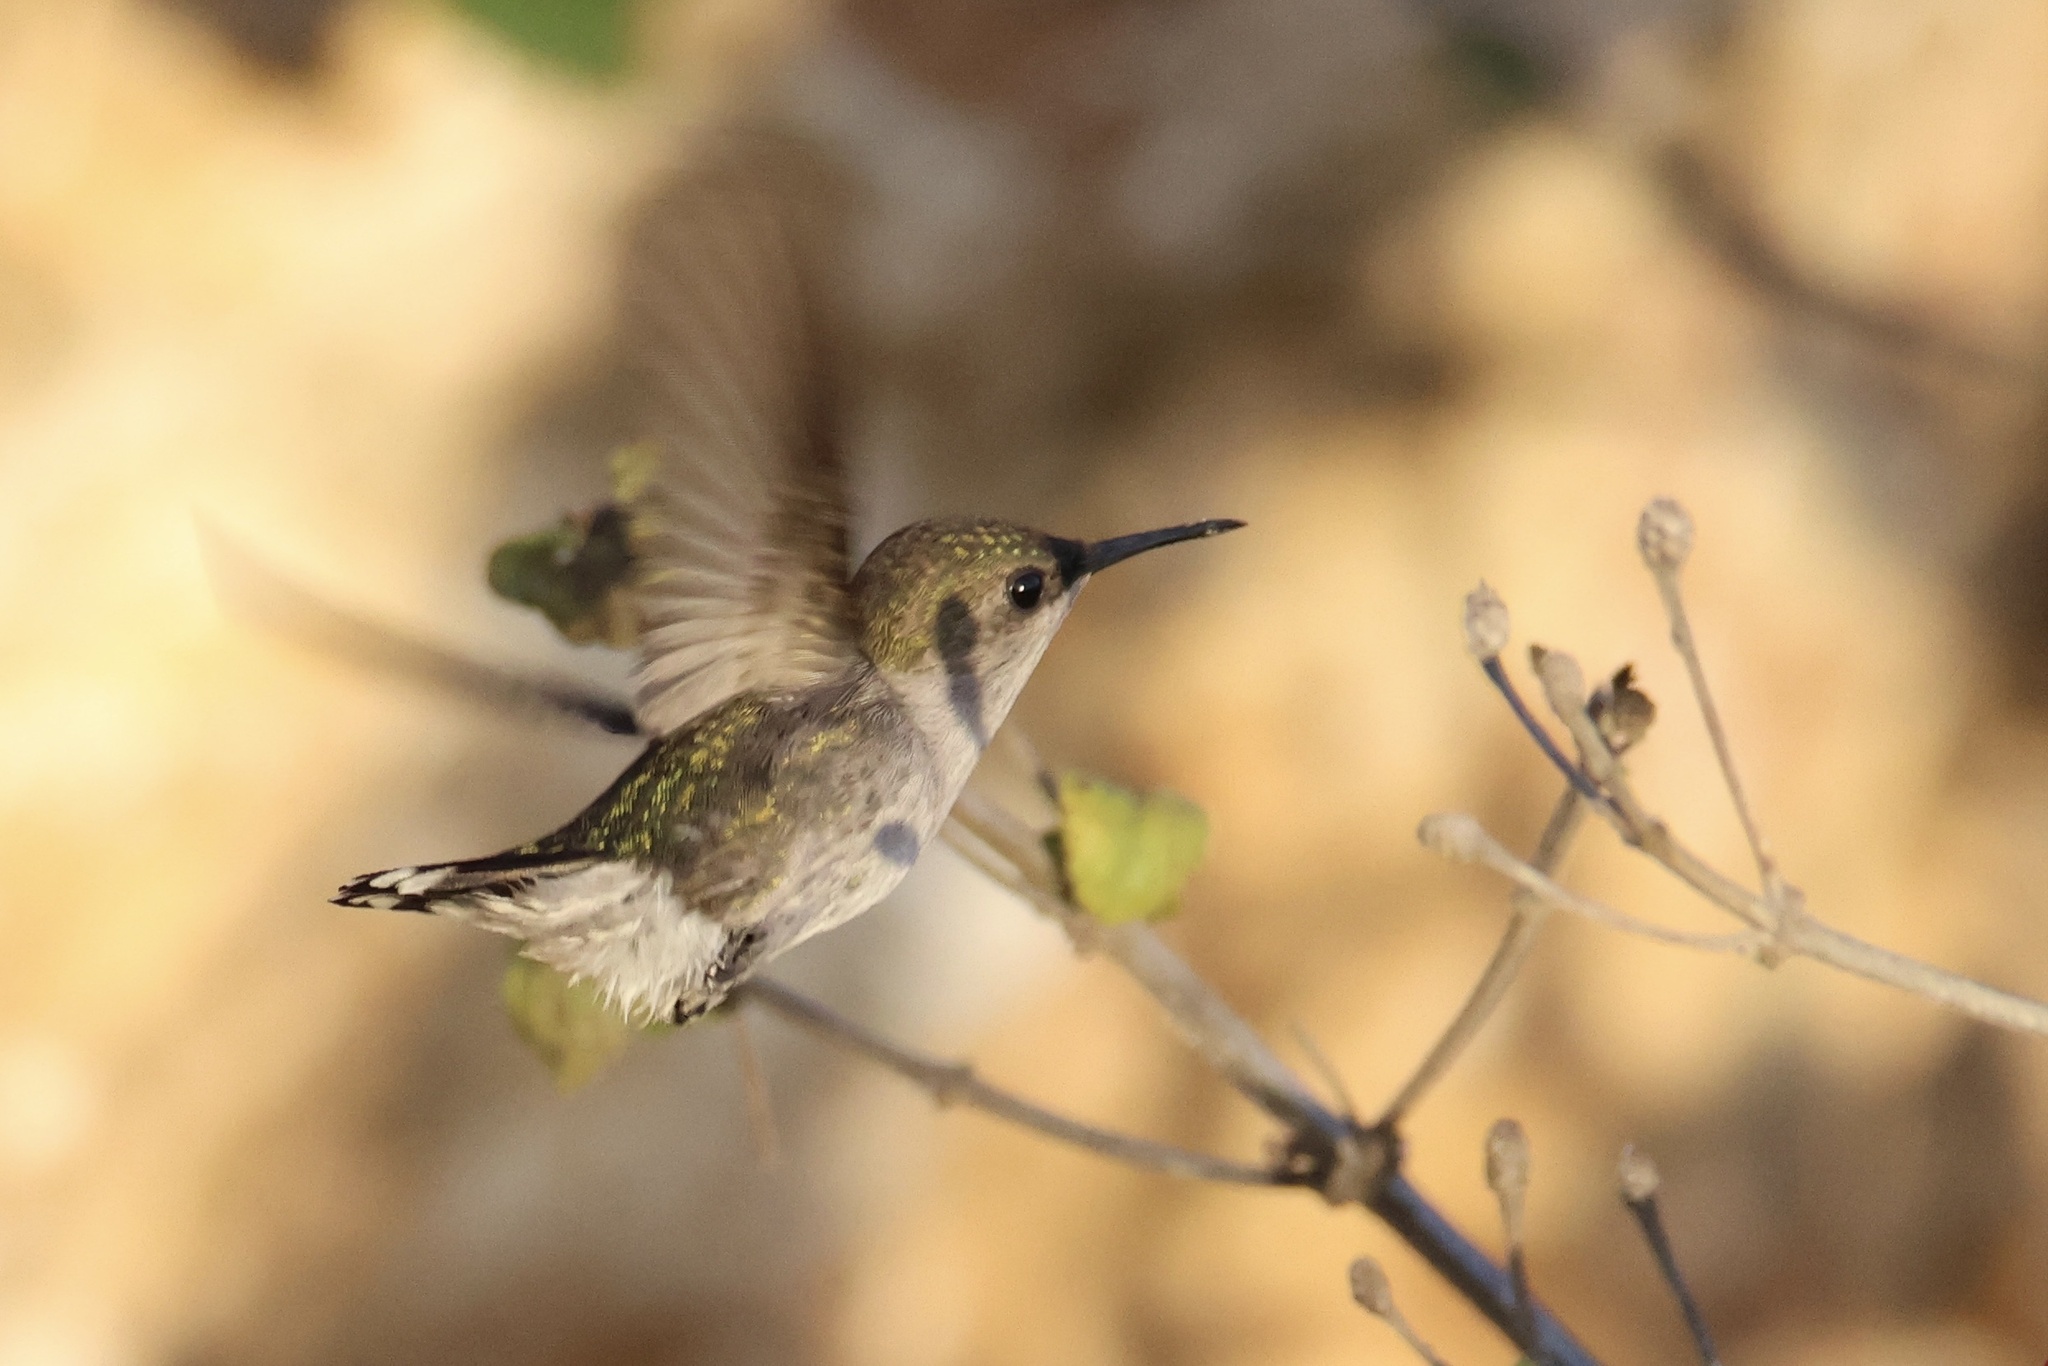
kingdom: Animalia
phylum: Chordata
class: Aves
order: Apodiformes
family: Trochilidae
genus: Mellisuga
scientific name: Mellisuga minima
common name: Vervain hummingbird
